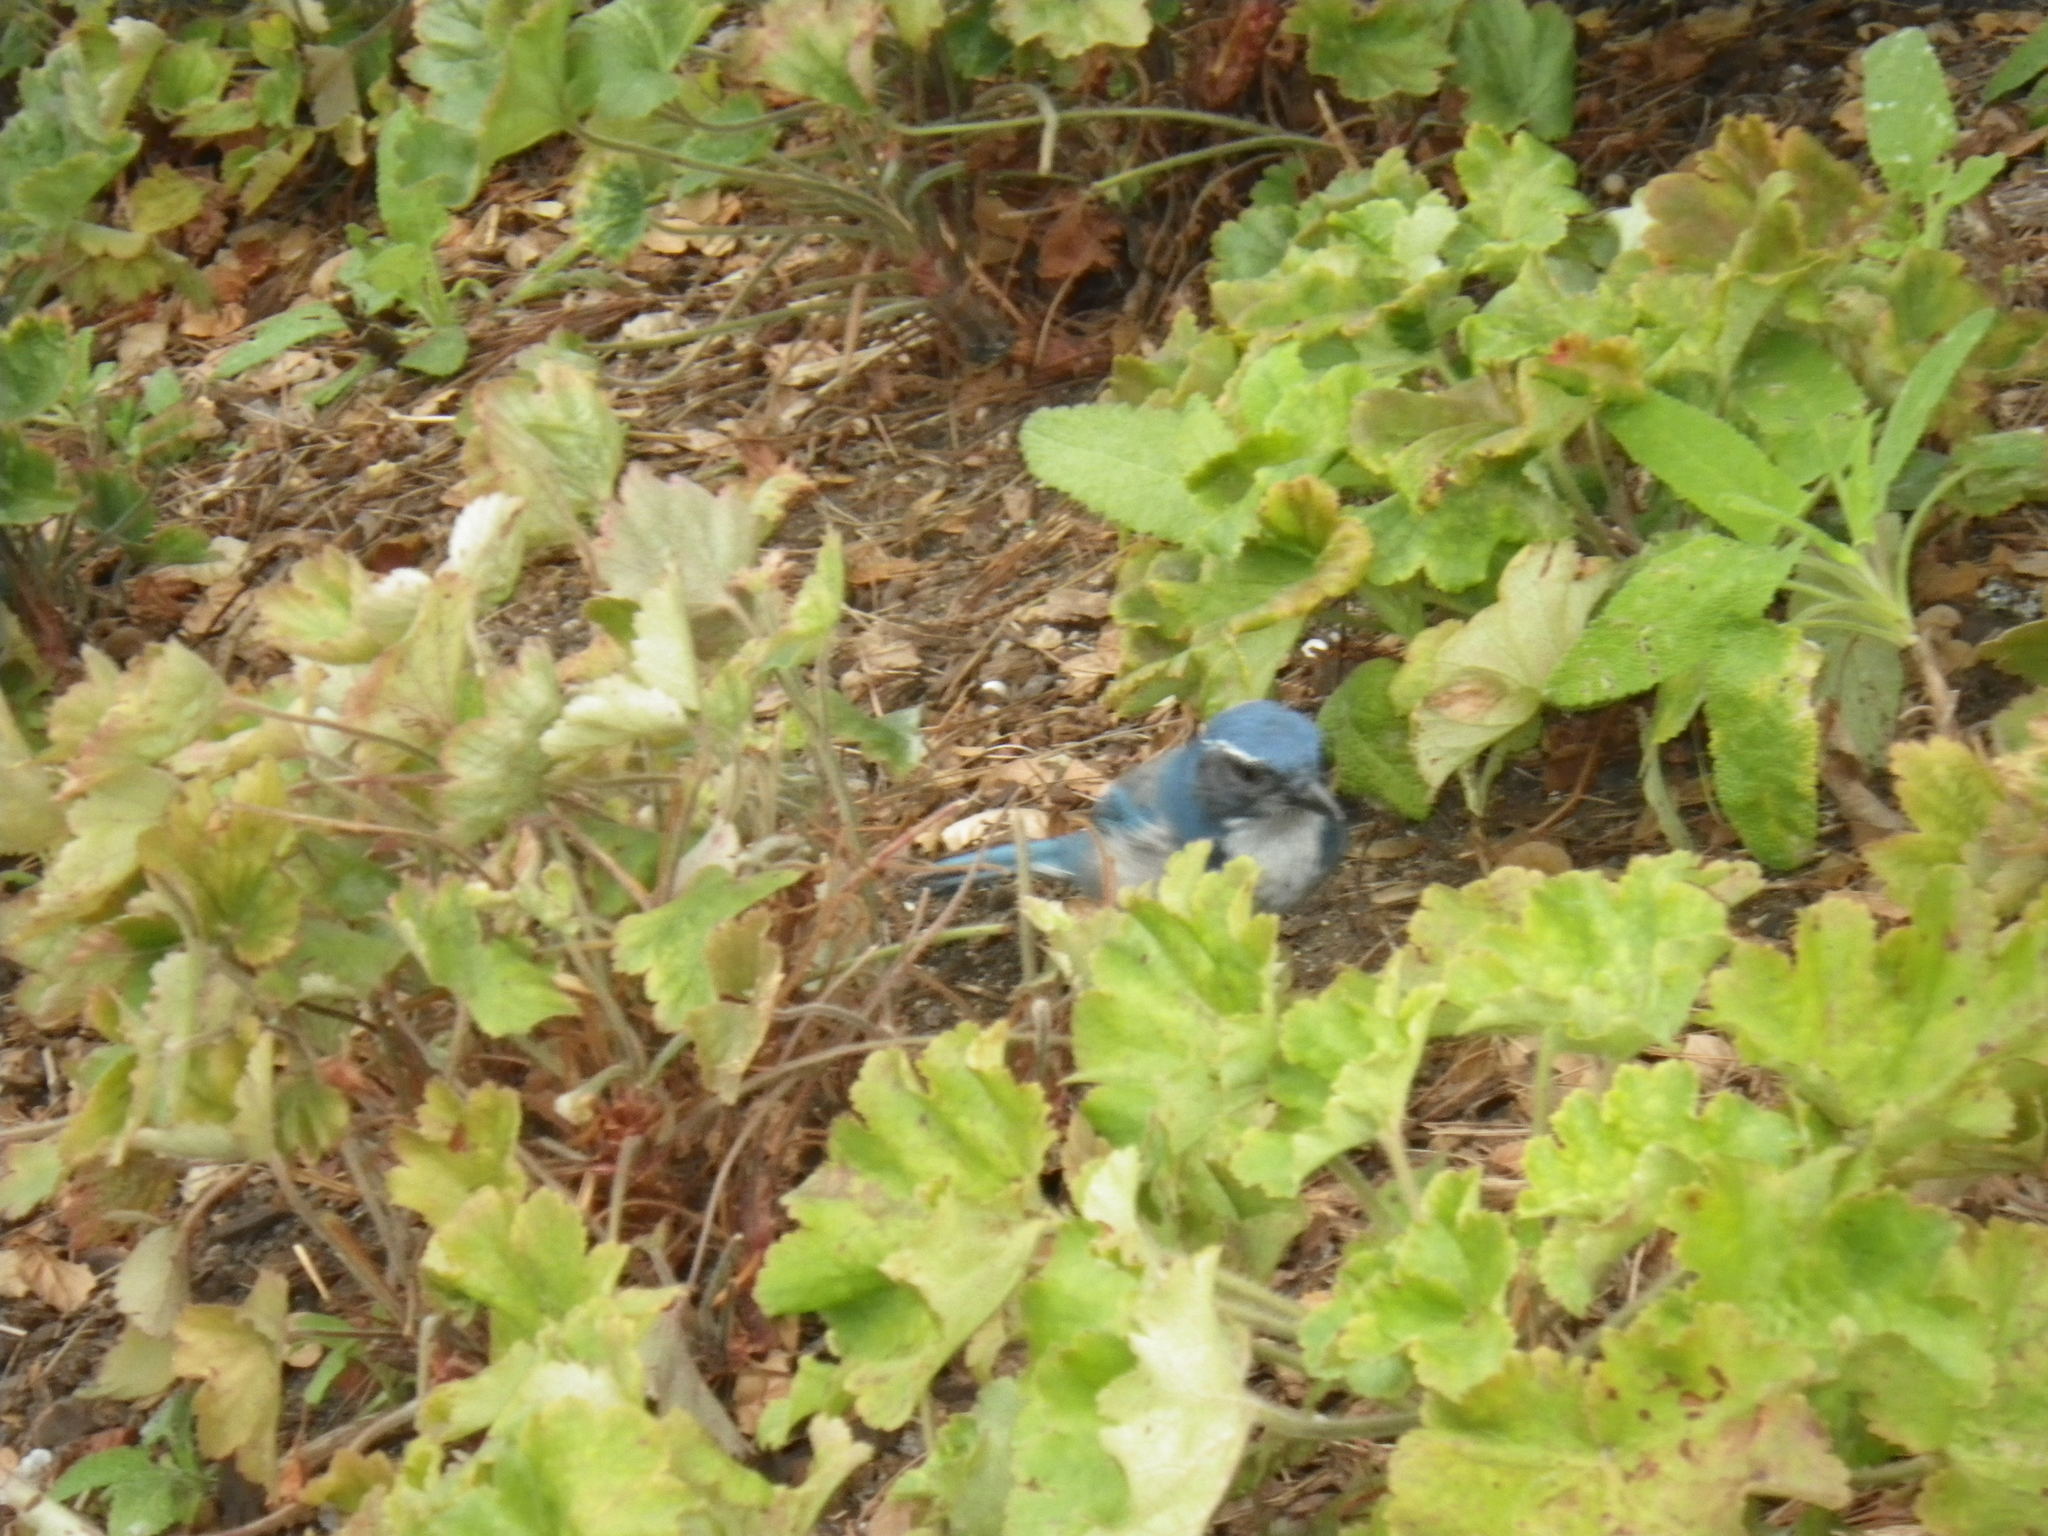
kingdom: Animalia
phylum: Chordata
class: Aves
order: Passeriformes
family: Corvidae
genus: Aphelocoma
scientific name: Aphelocoma californica
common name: California scrub-jay
